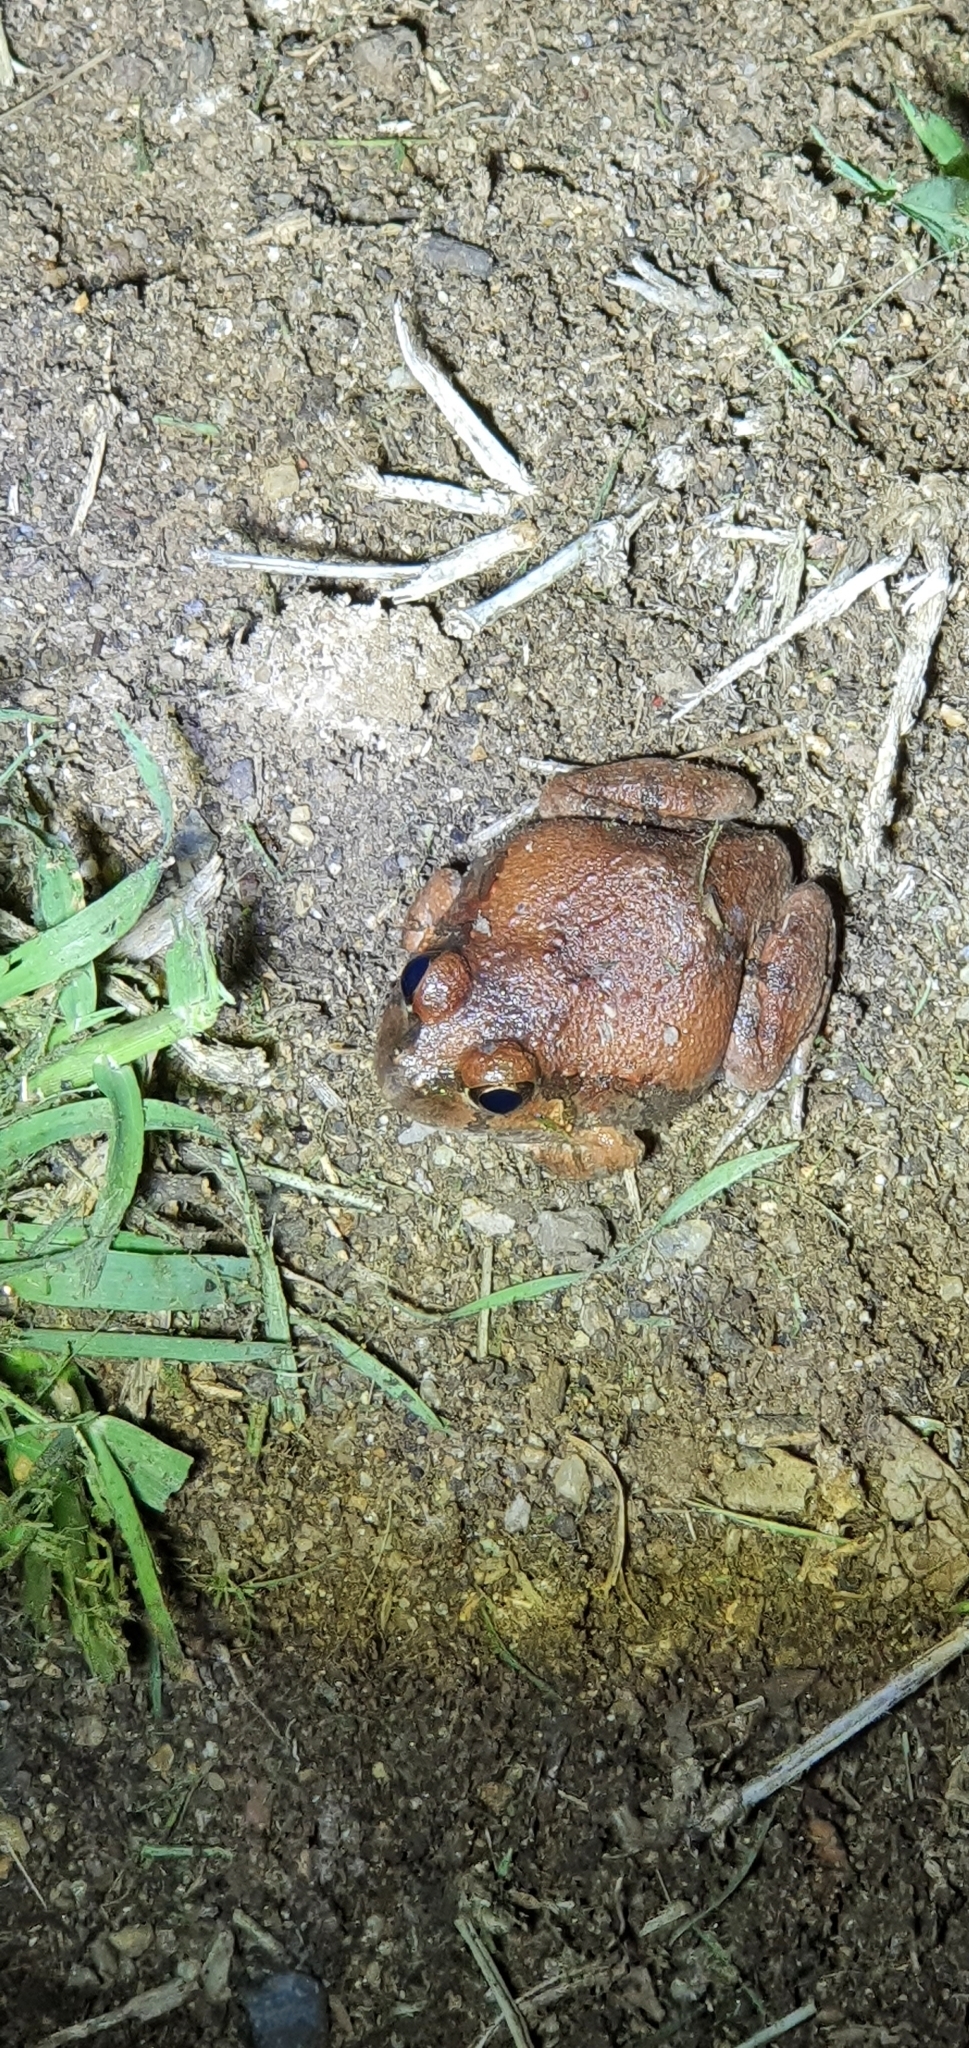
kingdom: Animalia
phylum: Chordata
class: Amphibia
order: Anura
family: Limnodynastidae
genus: Platyplectrum
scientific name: Platyplectrum ornatum
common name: Ornate burrowing frog
